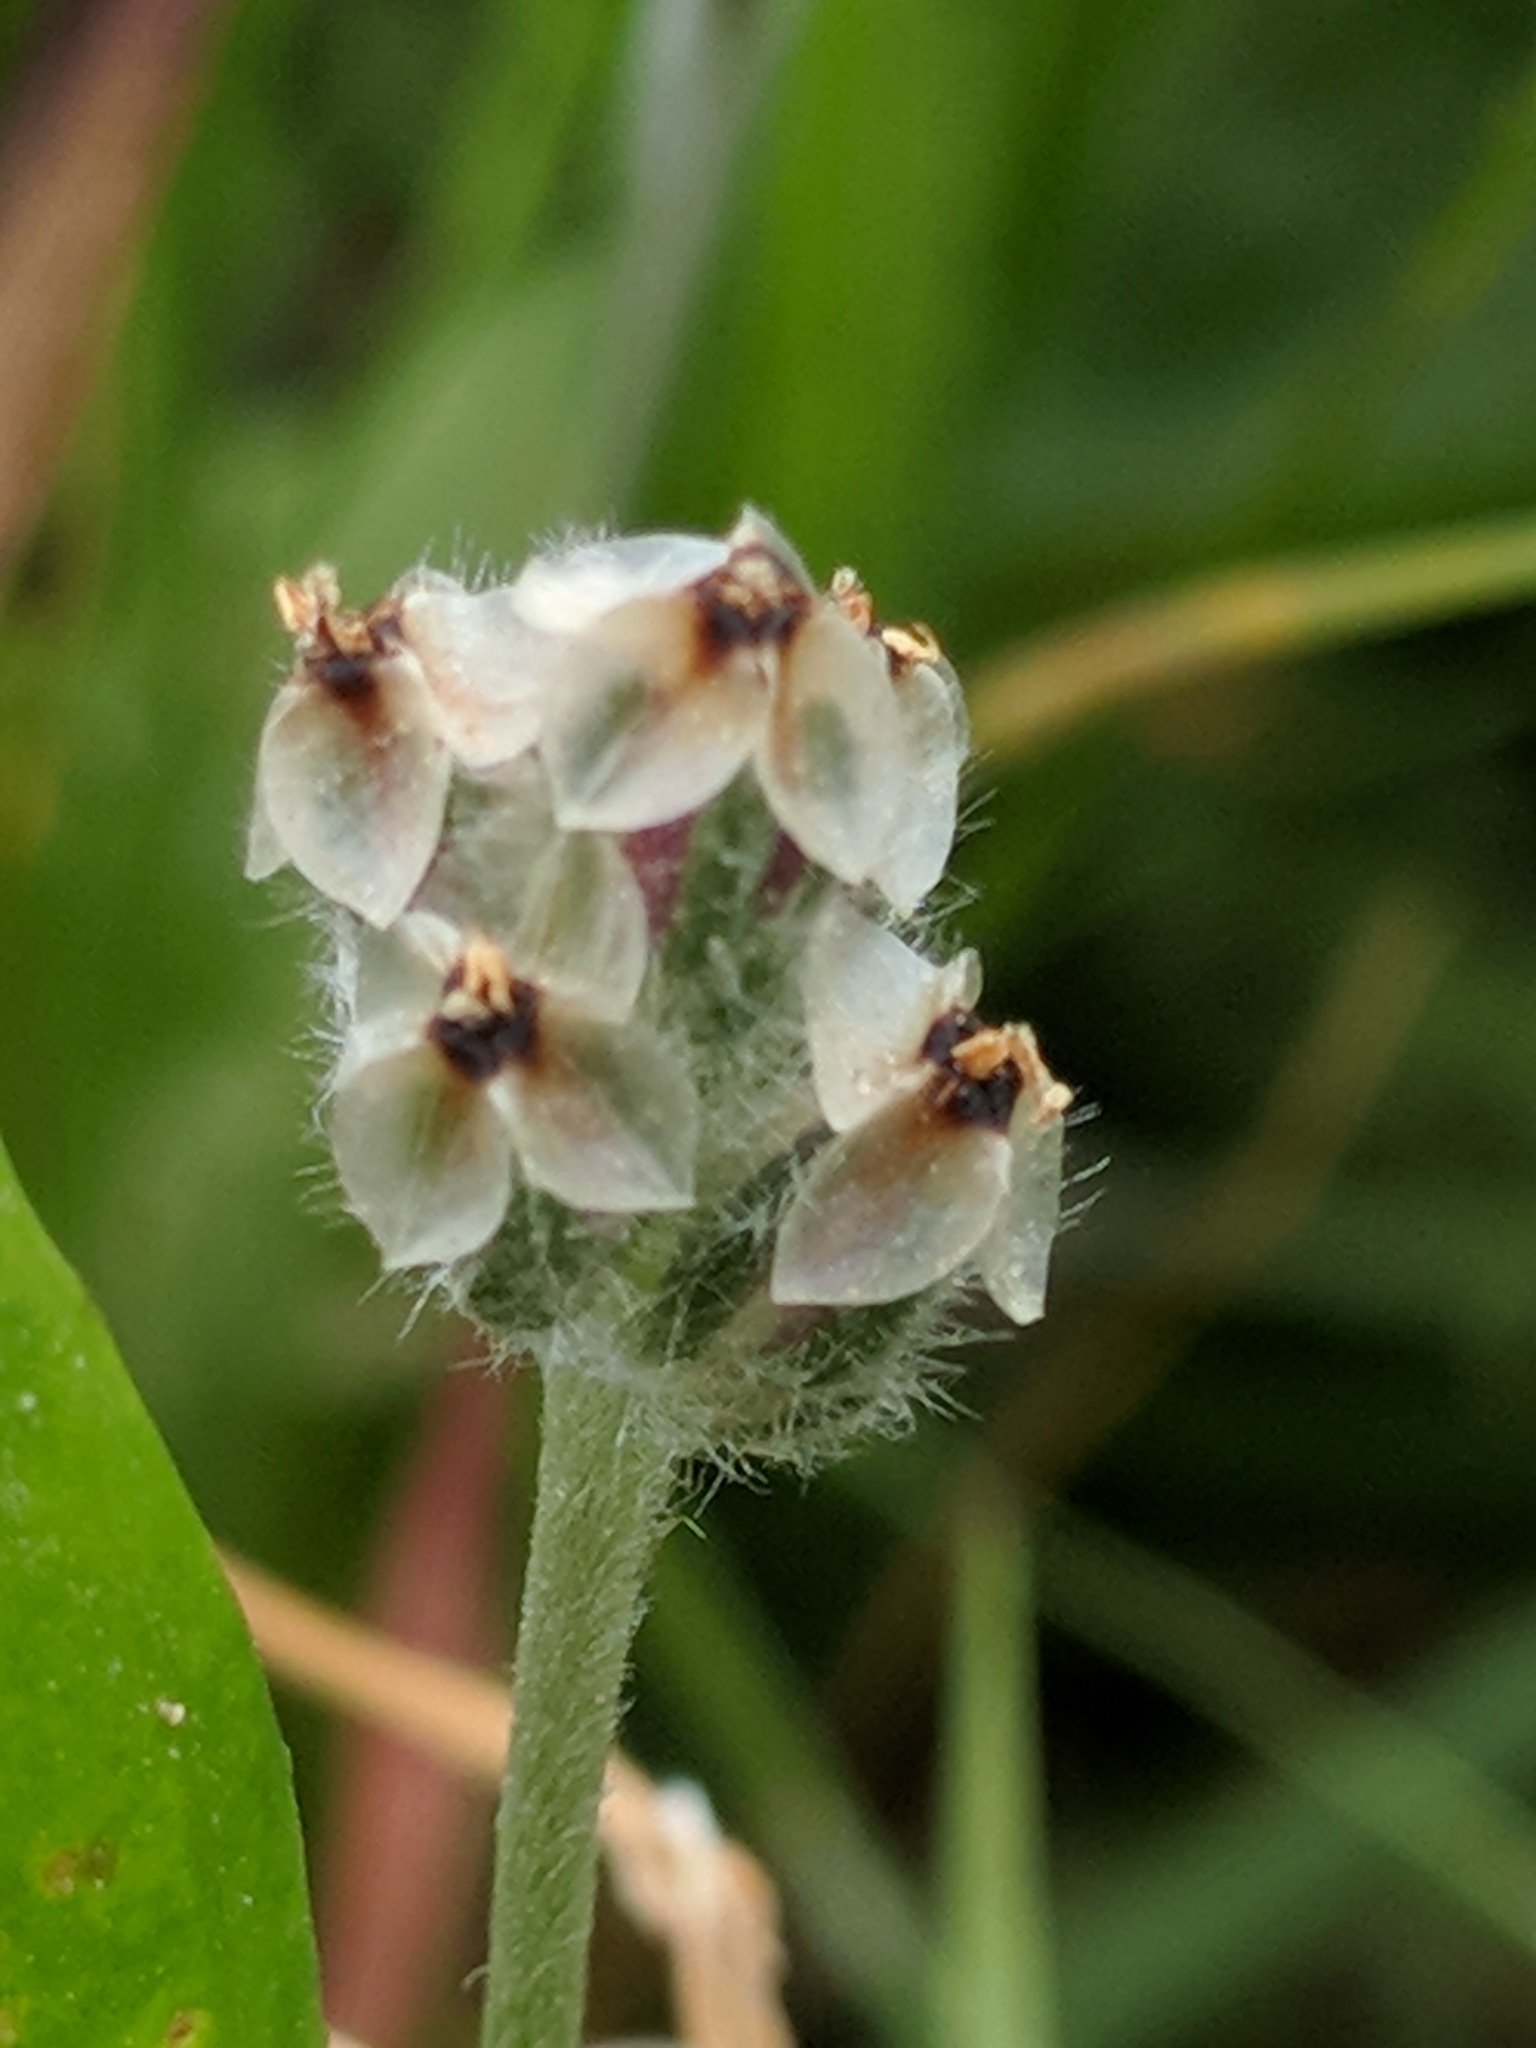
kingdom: Plantae
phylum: Tracheophyta
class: Magnoliopsida
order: Lamiales
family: Plantaginaceae
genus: Plantago
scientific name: Plantago erecta
